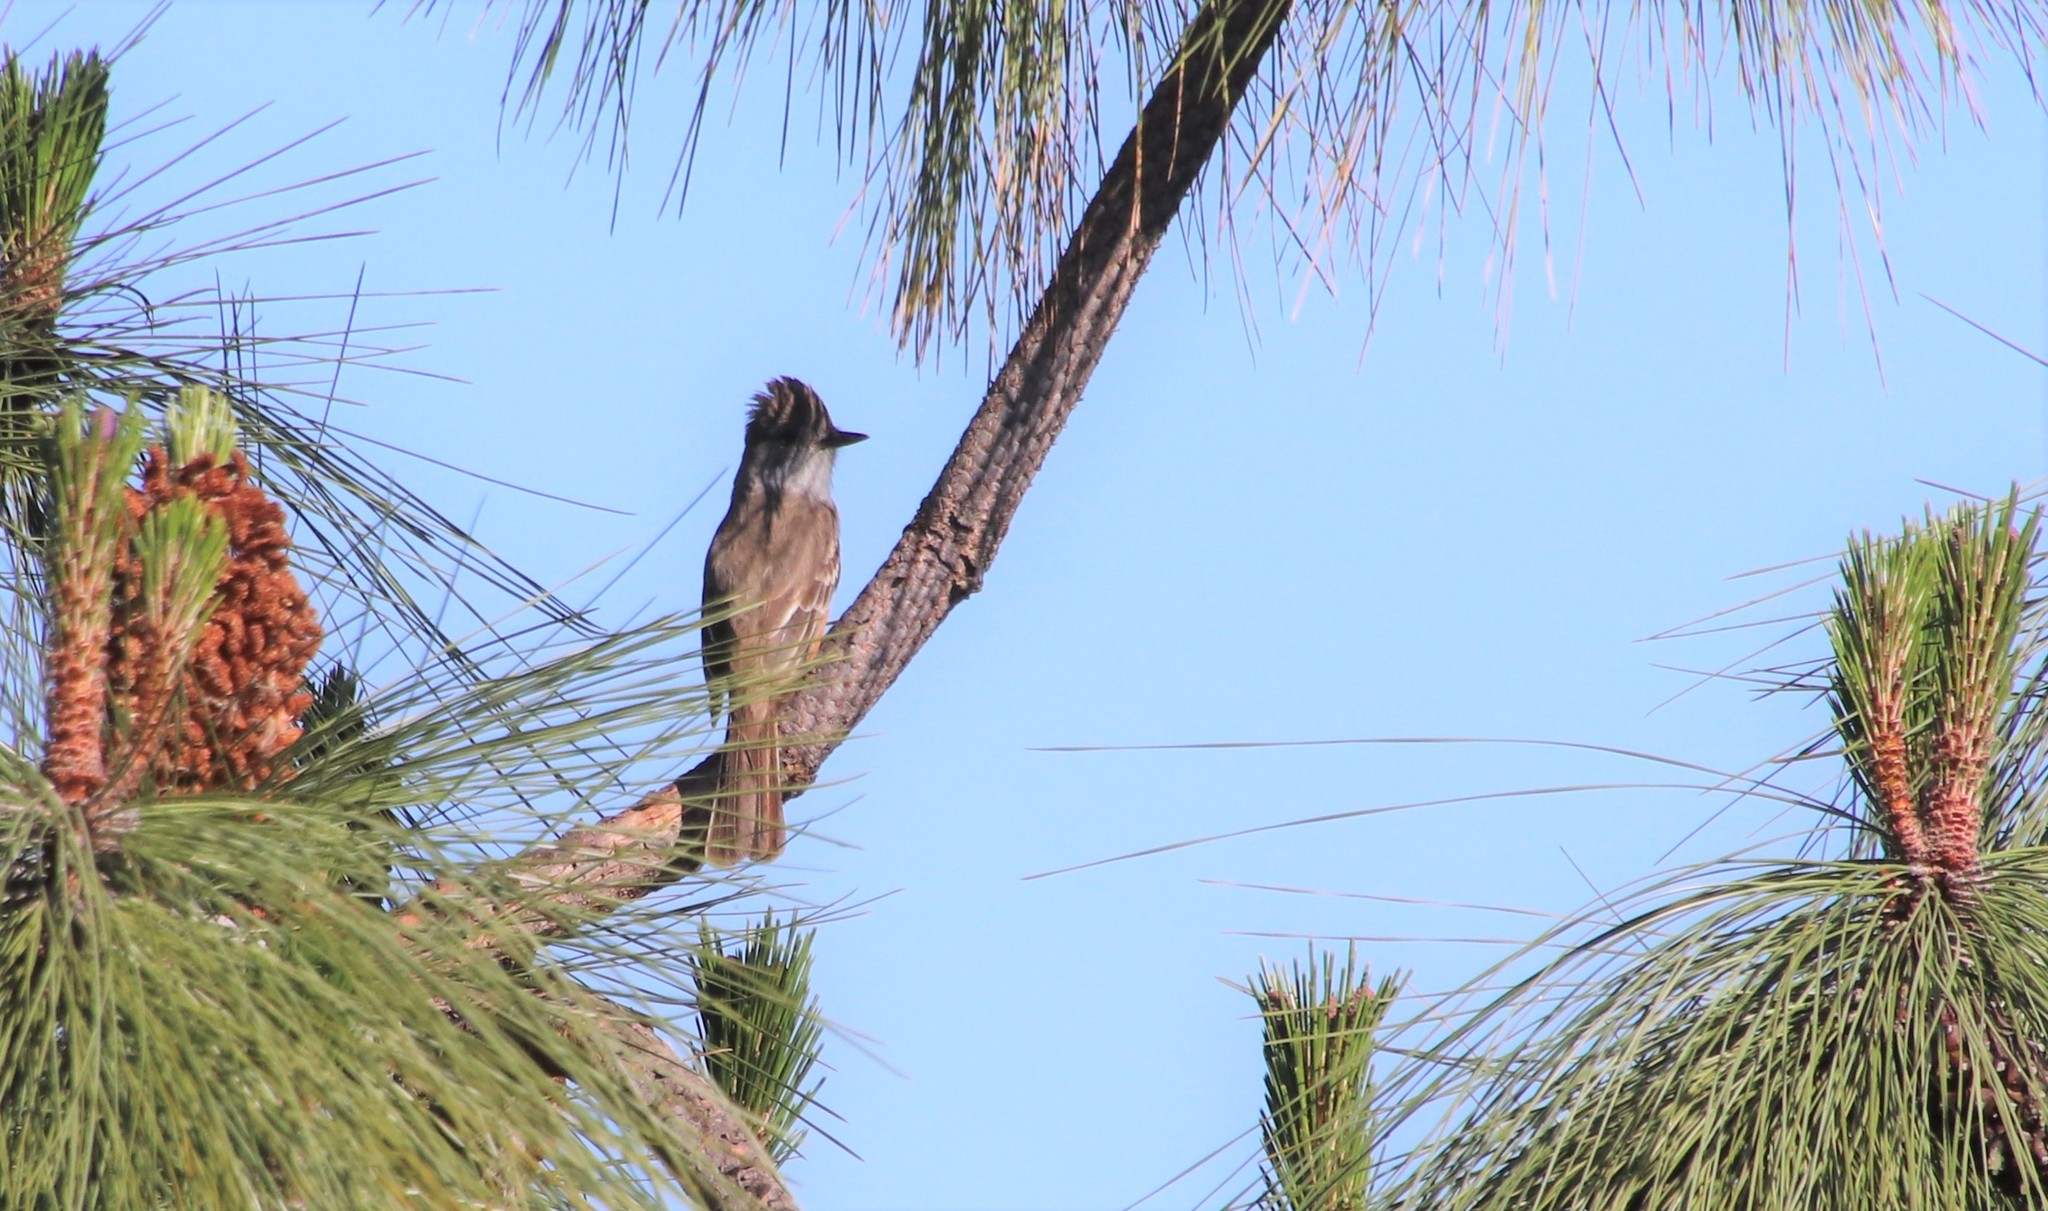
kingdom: Animalia
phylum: Chordata
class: Aves
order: Passeriformes
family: Tyrannidae
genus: Myiarchus
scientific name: Myiarchus cinerascens
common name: Ash-throated flycatcher
